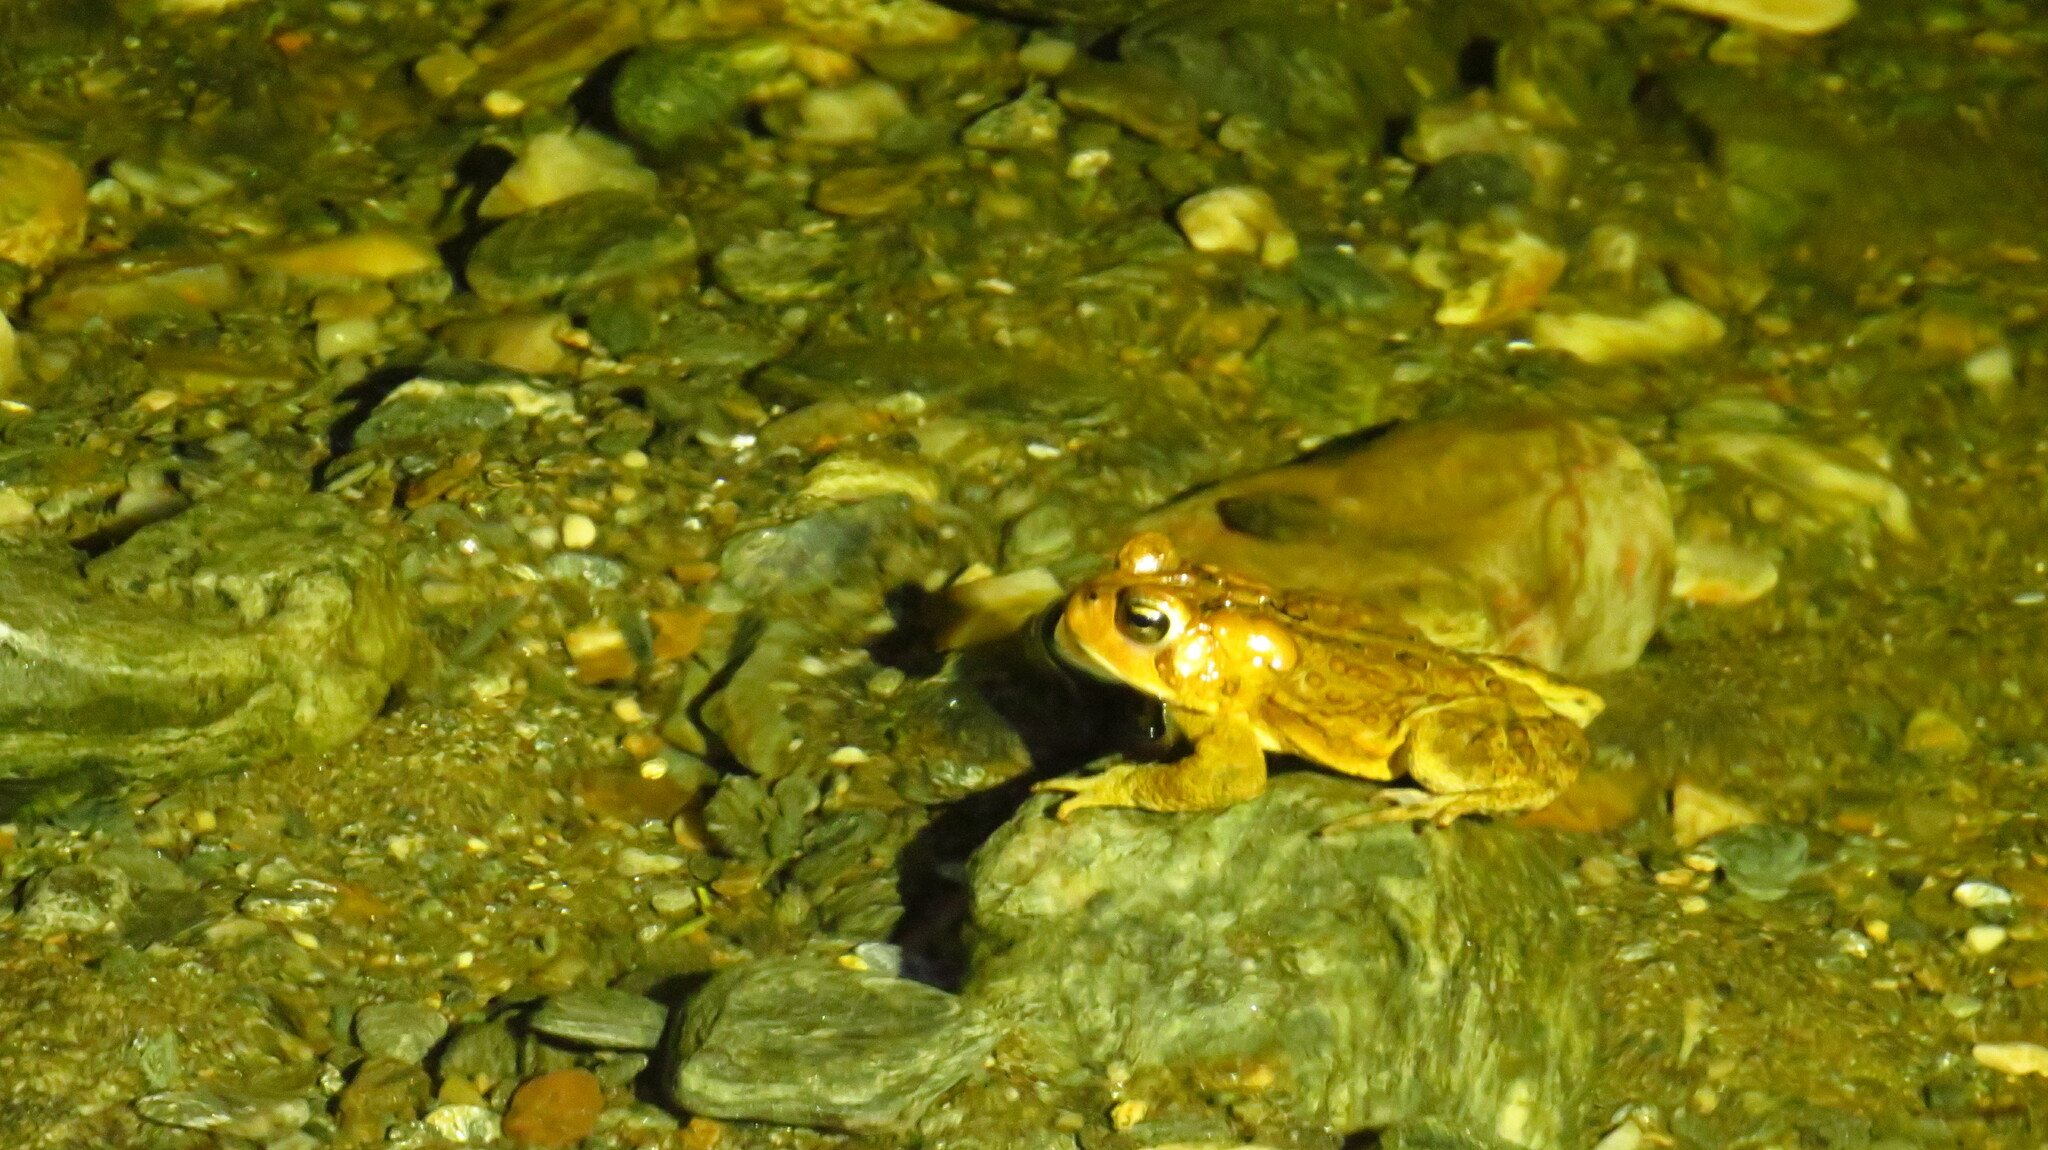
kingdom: Animalia
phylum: Chordata
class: Amphibia
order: Anura
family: Bufonidae
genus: Anaxyrus
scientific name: Anaxyrus americanus
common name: American toad
